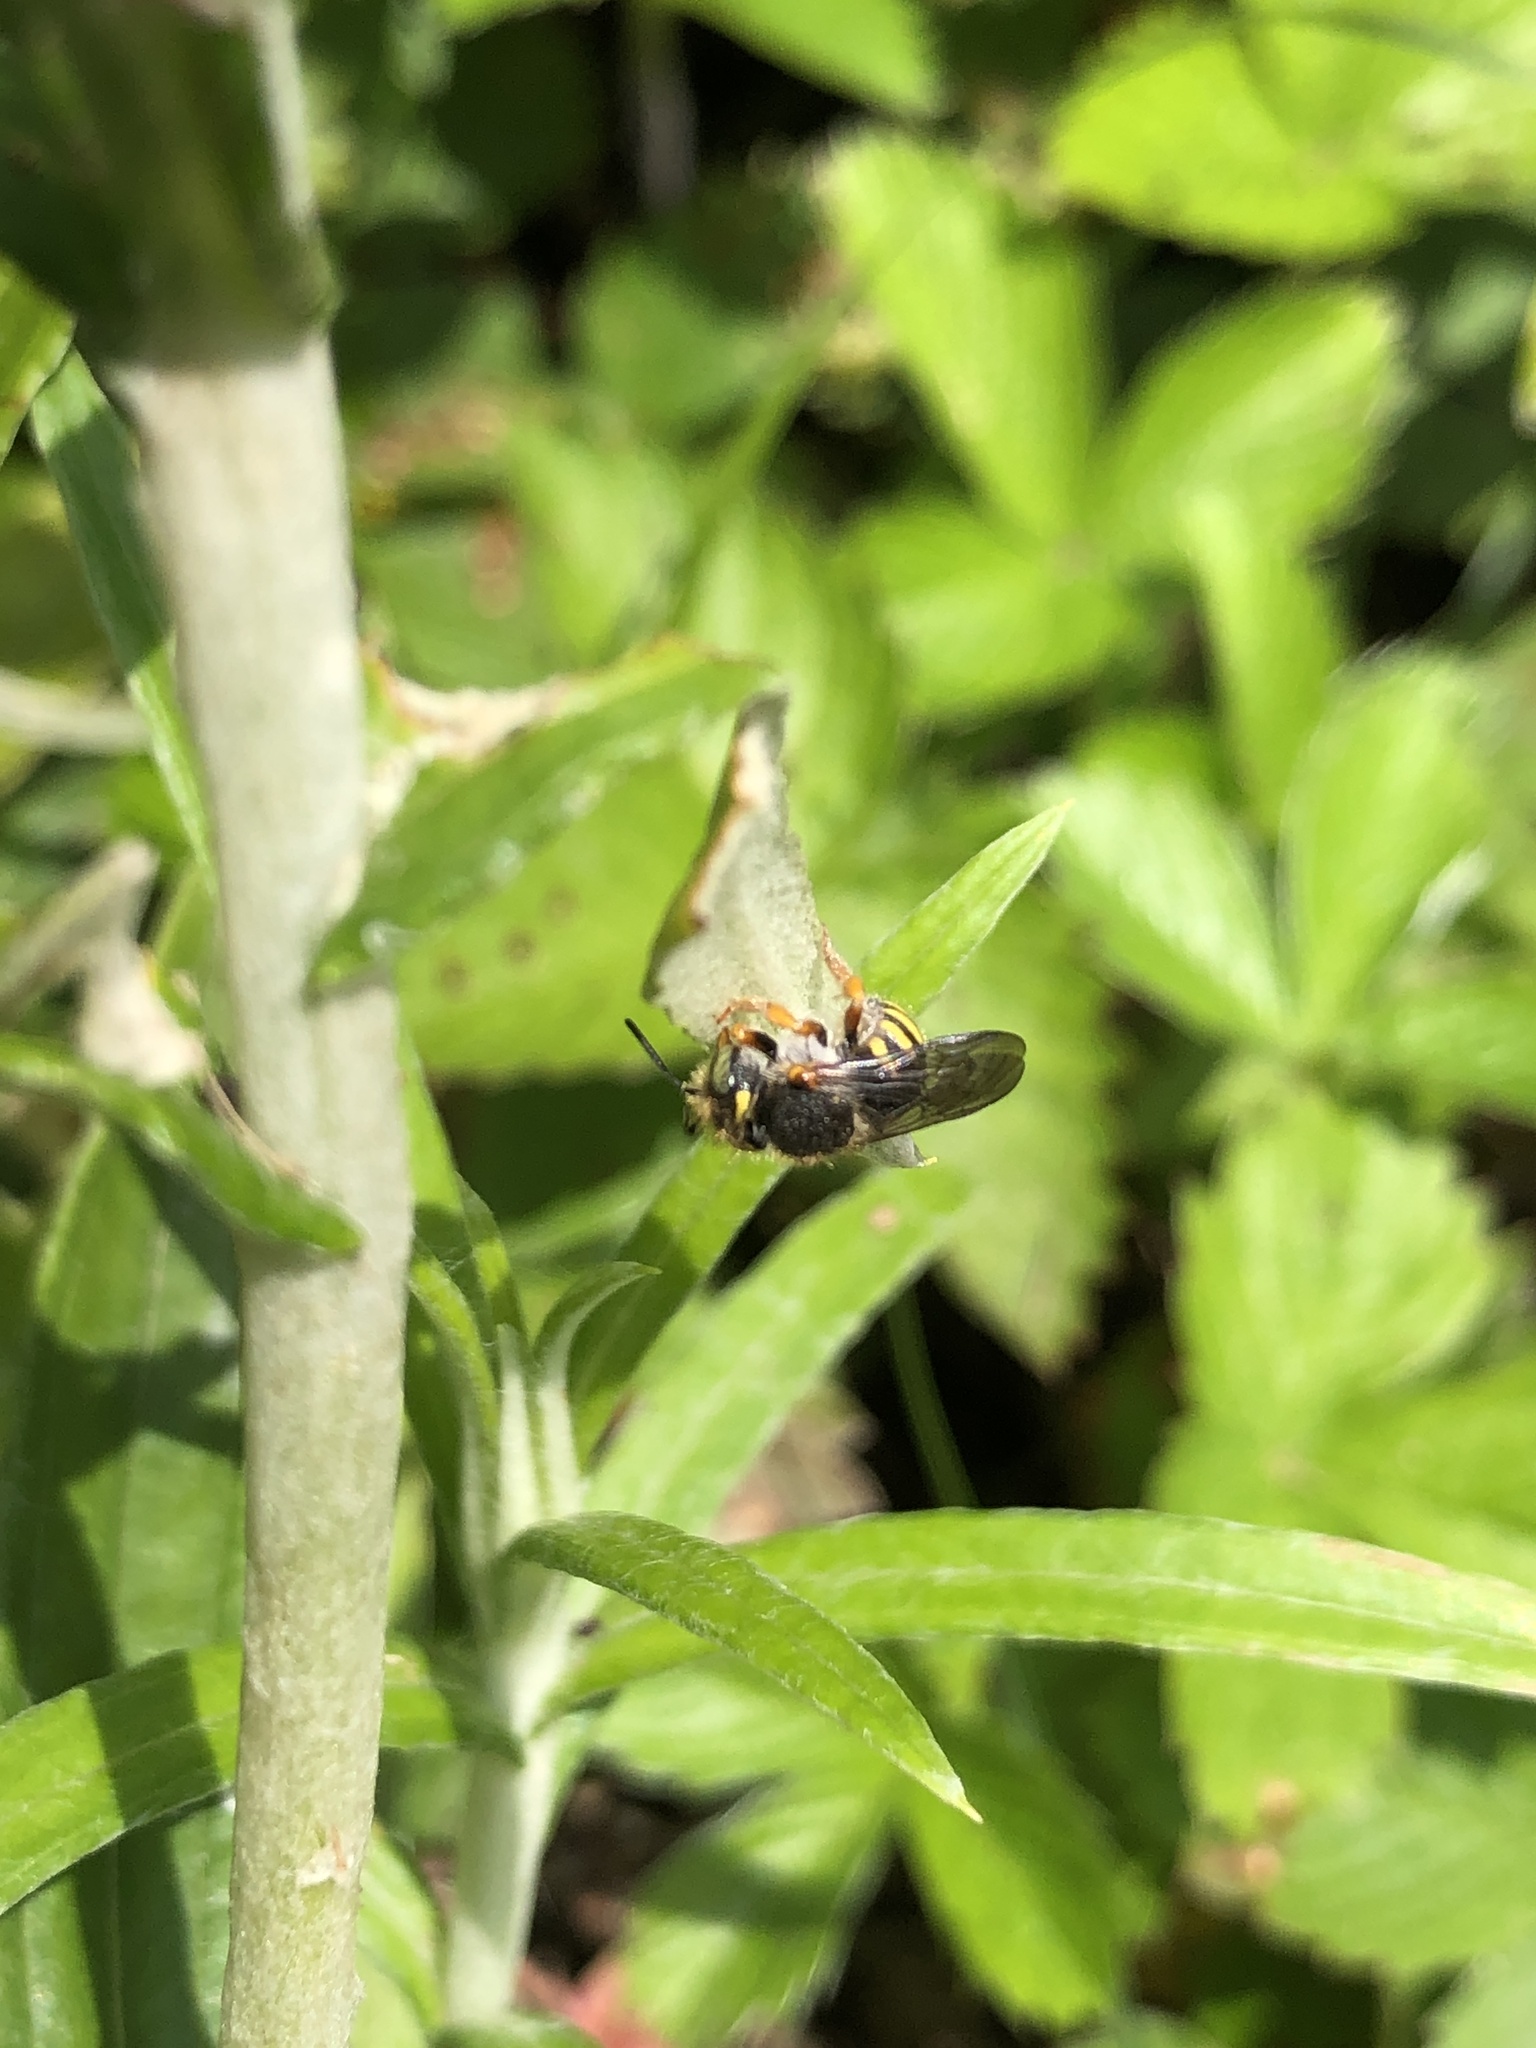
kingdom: Animalia
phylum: Arthropoda
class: Insecta
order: Hymenoptera
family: Megachilidae
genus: Anthidium
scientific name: Anthidium oblongatum
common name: Oblong wool carder bee
